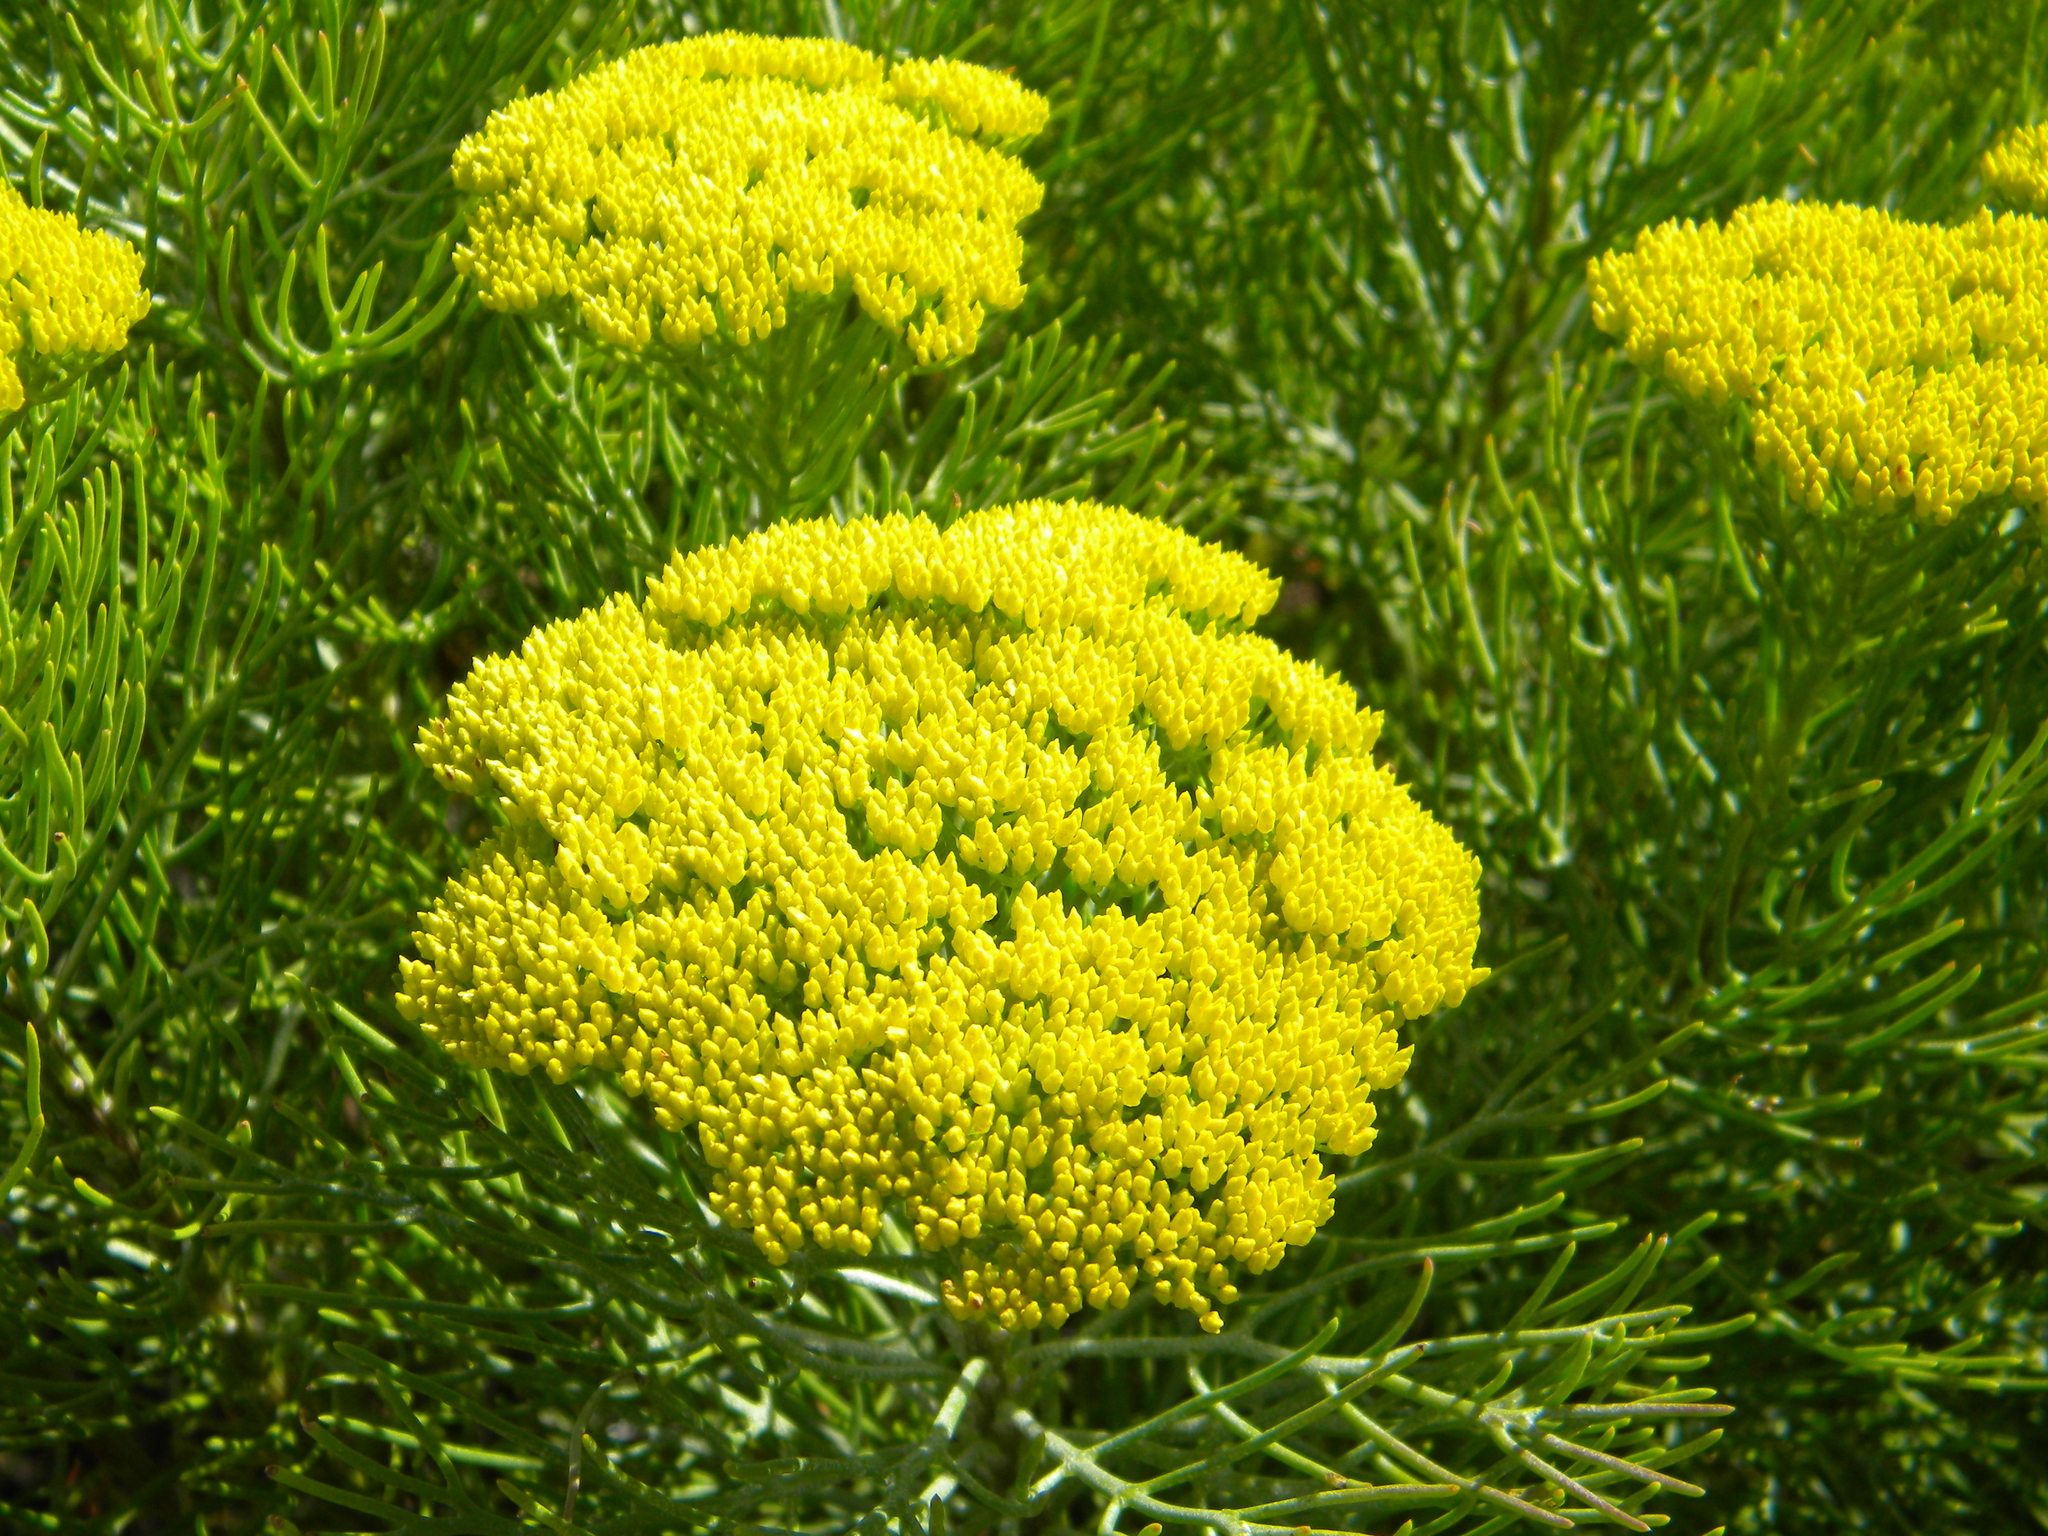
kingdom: Plantae
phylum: Tracheophyta
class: Magnoliopsida
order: Asterales
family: Asteraceae
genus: Hymenolepis
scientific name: Hymenolepis crithmifolia
